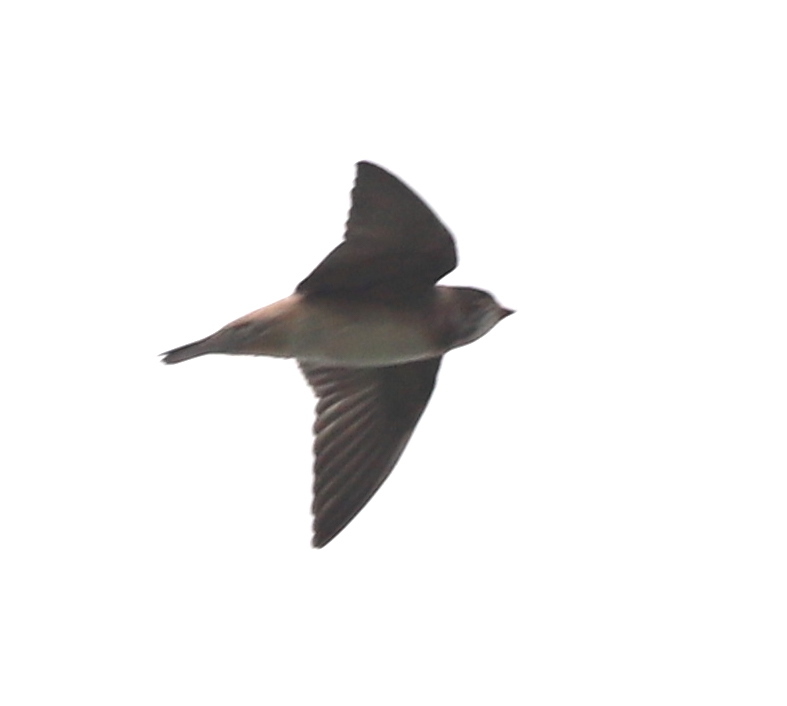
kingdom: Animalia
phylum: Chordata
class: Aves
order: Passeriformes
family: Hirundinidae
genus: Petrochelidon
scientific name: Petrochelidon pyrrhonota
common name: American cliff swallow
